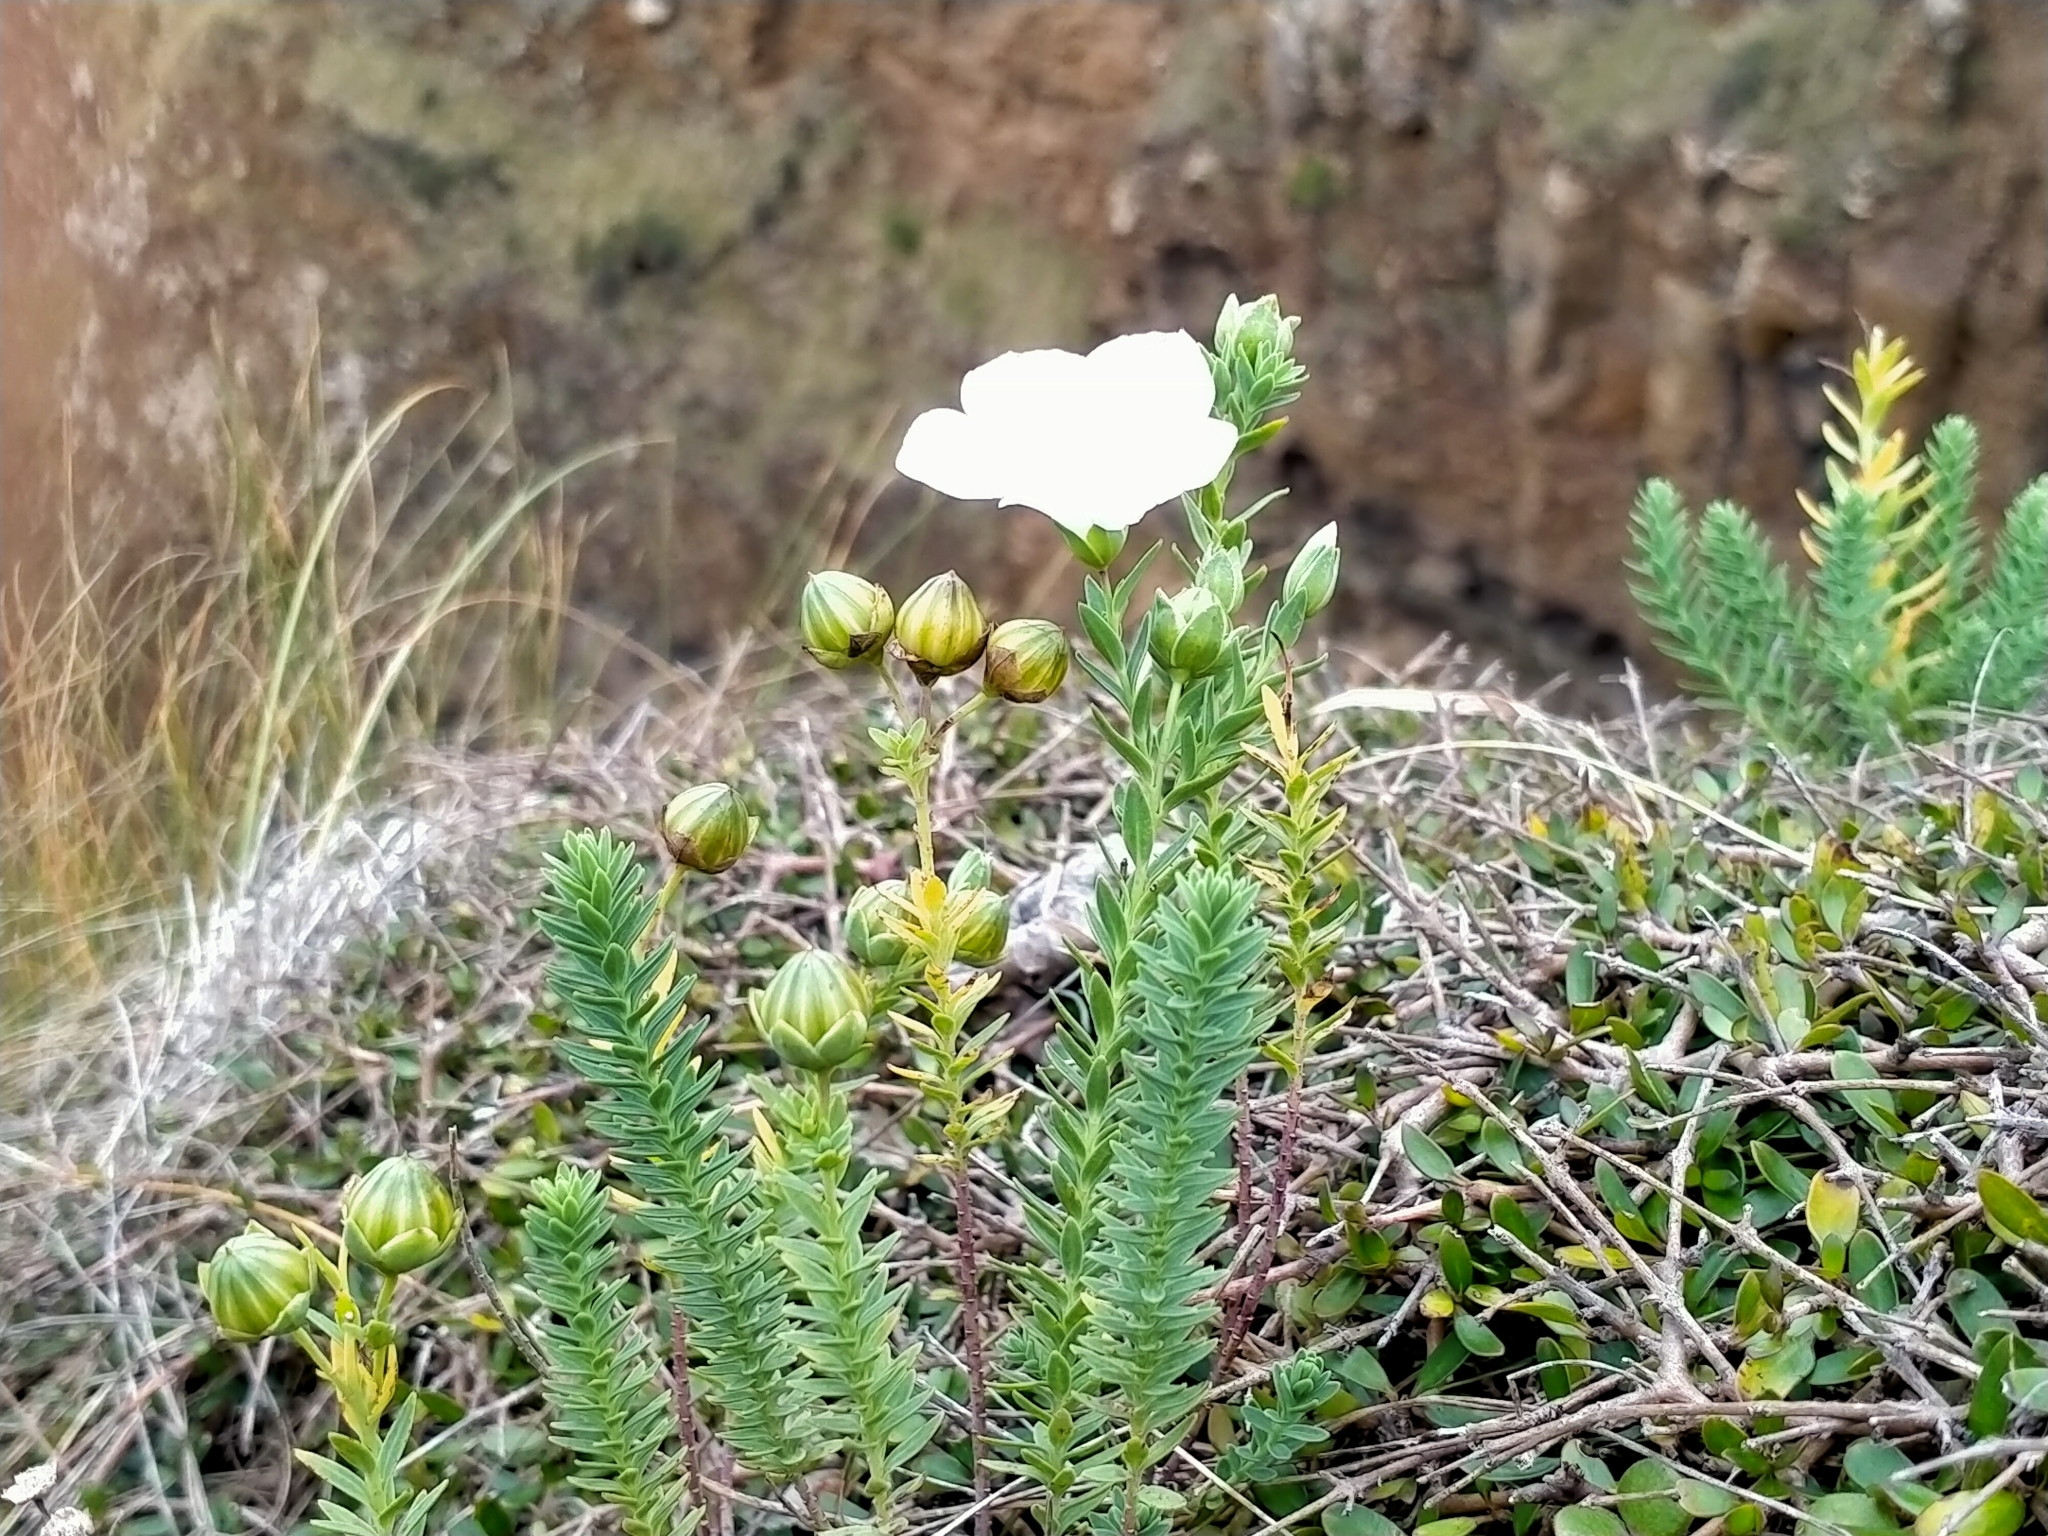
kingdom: Plantae
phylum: Tracheophyta
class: Magnoliopsida
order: Malpighiales
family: Linaceae
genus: Linum
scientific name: Linum monogynum
